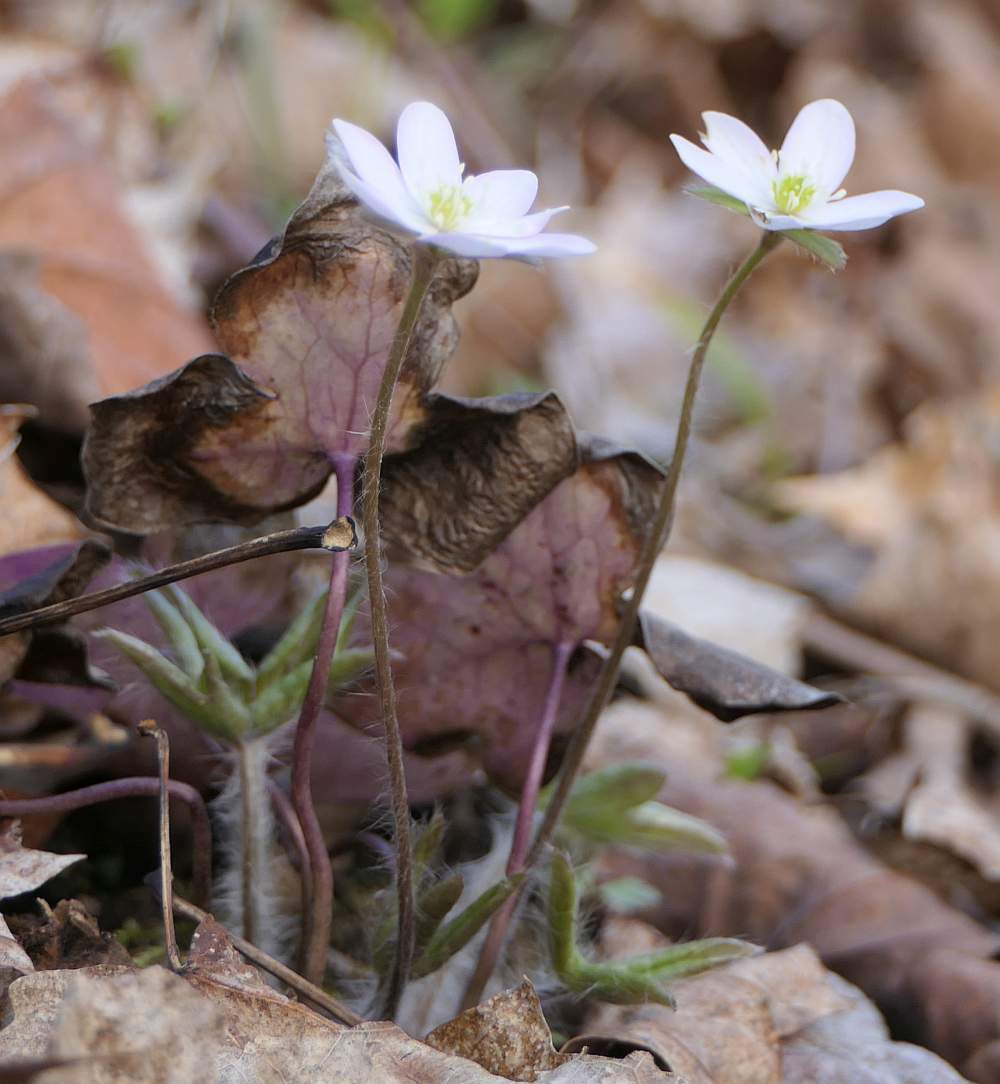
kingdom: Plantae
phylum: Tracheophyta
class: Magnoliopsida
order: Ranunculales
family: Ranunculaceae
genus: Hepatica
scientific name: Hepatica acutiloba
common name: Sharp-lobed hepatica
